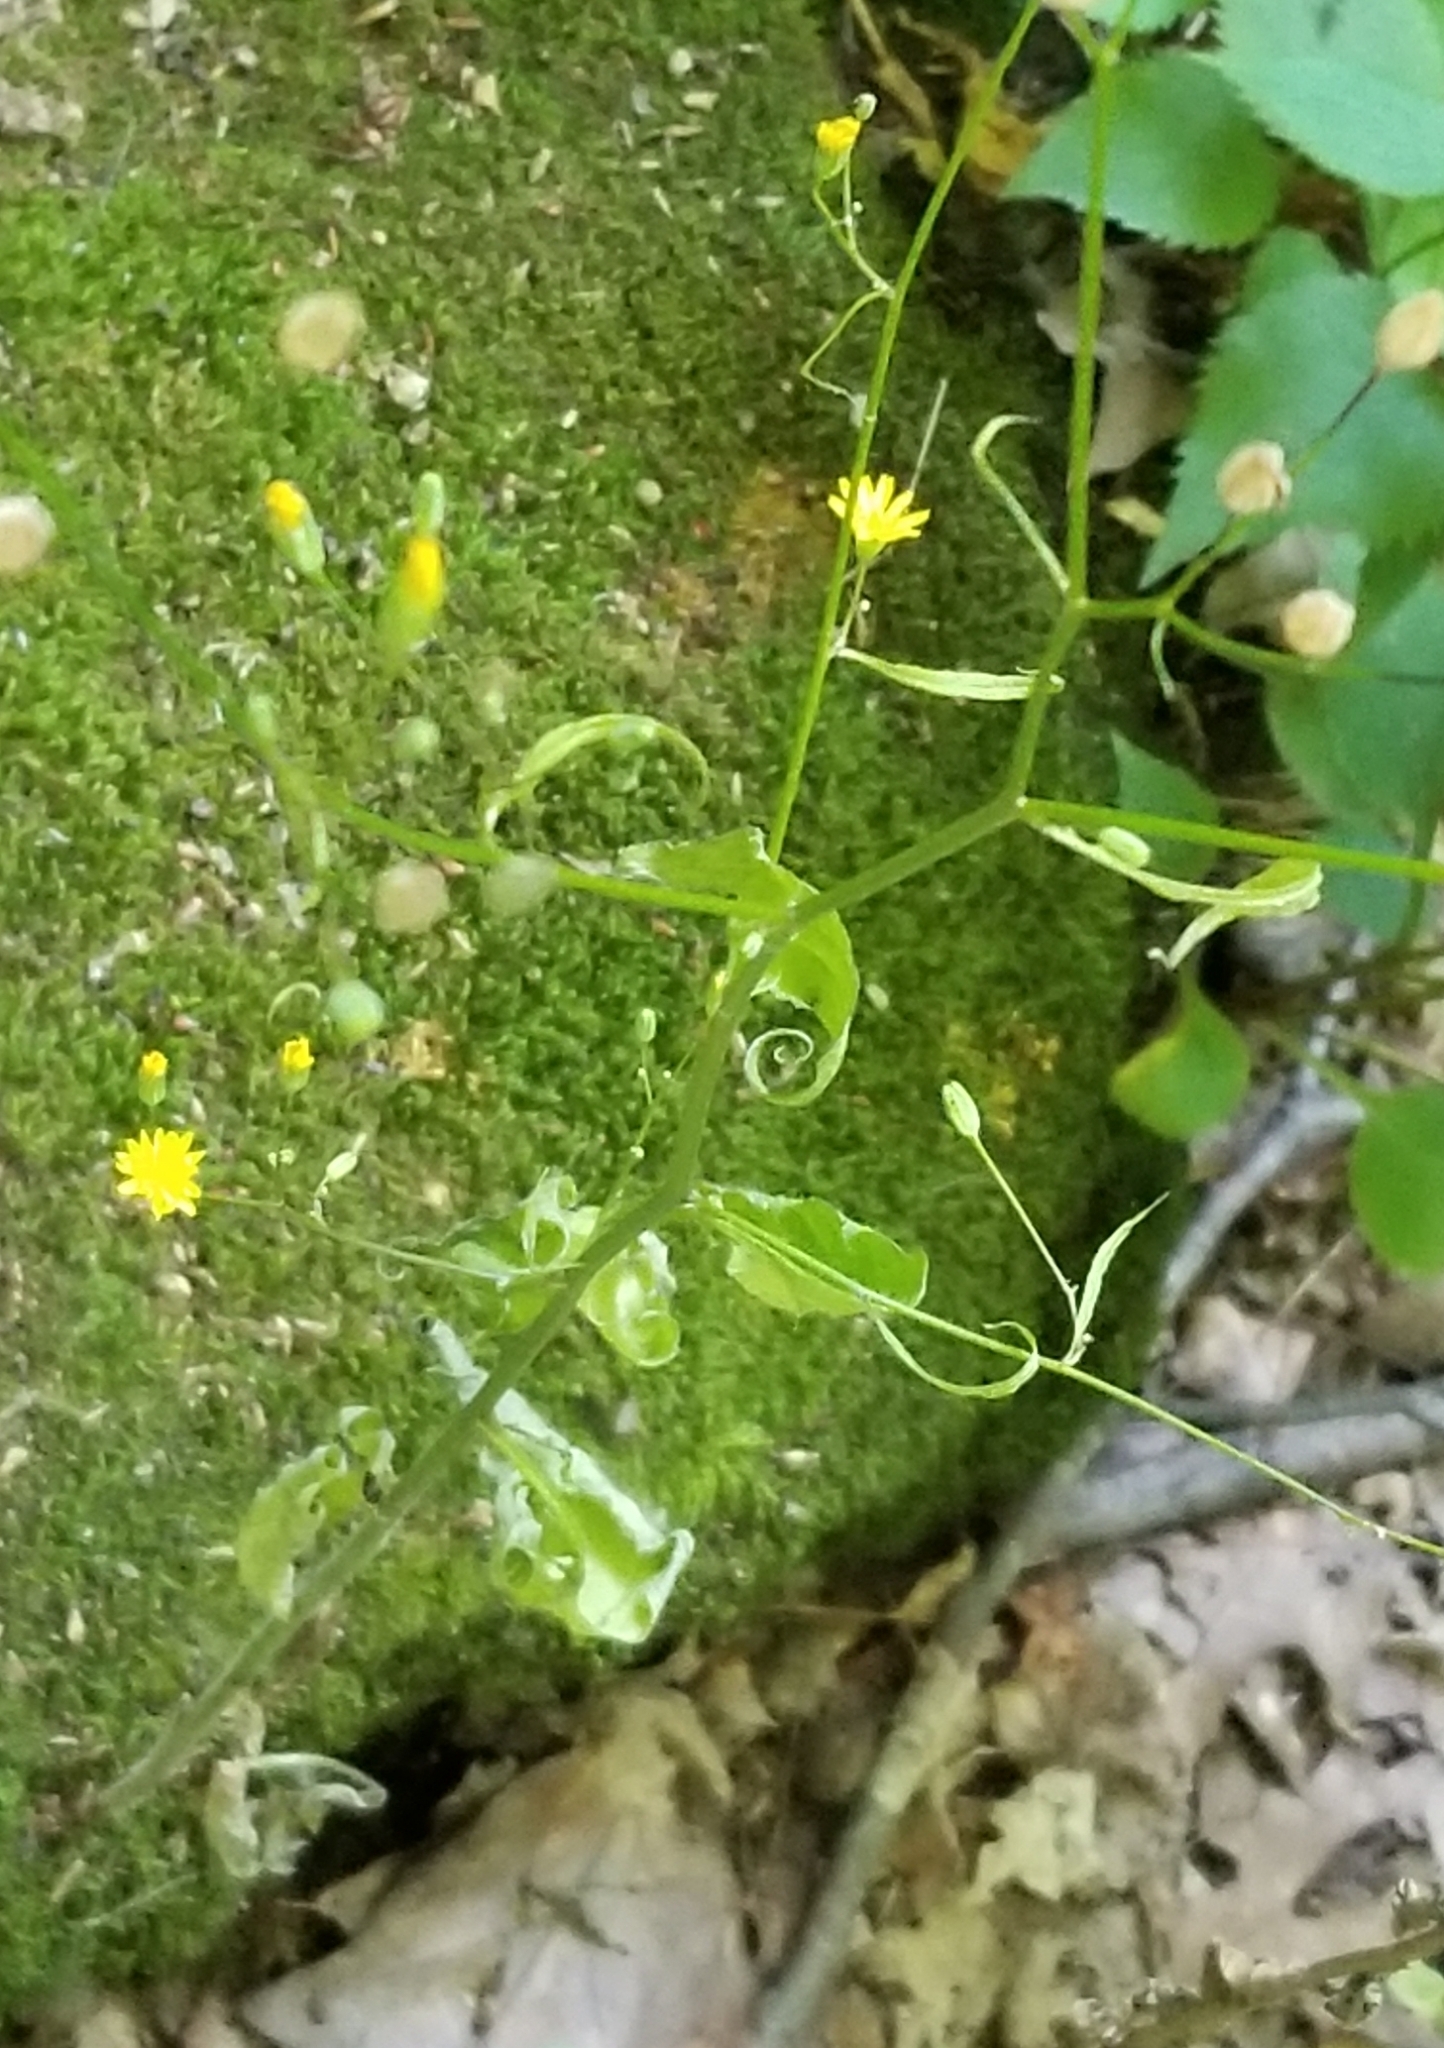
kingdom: Plantae
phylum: Tracheophyta
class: Magnoliopsida
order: Asterales
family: Asteraceae
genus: Lapsana
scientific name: Lapsana communis
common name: Nipplewort
